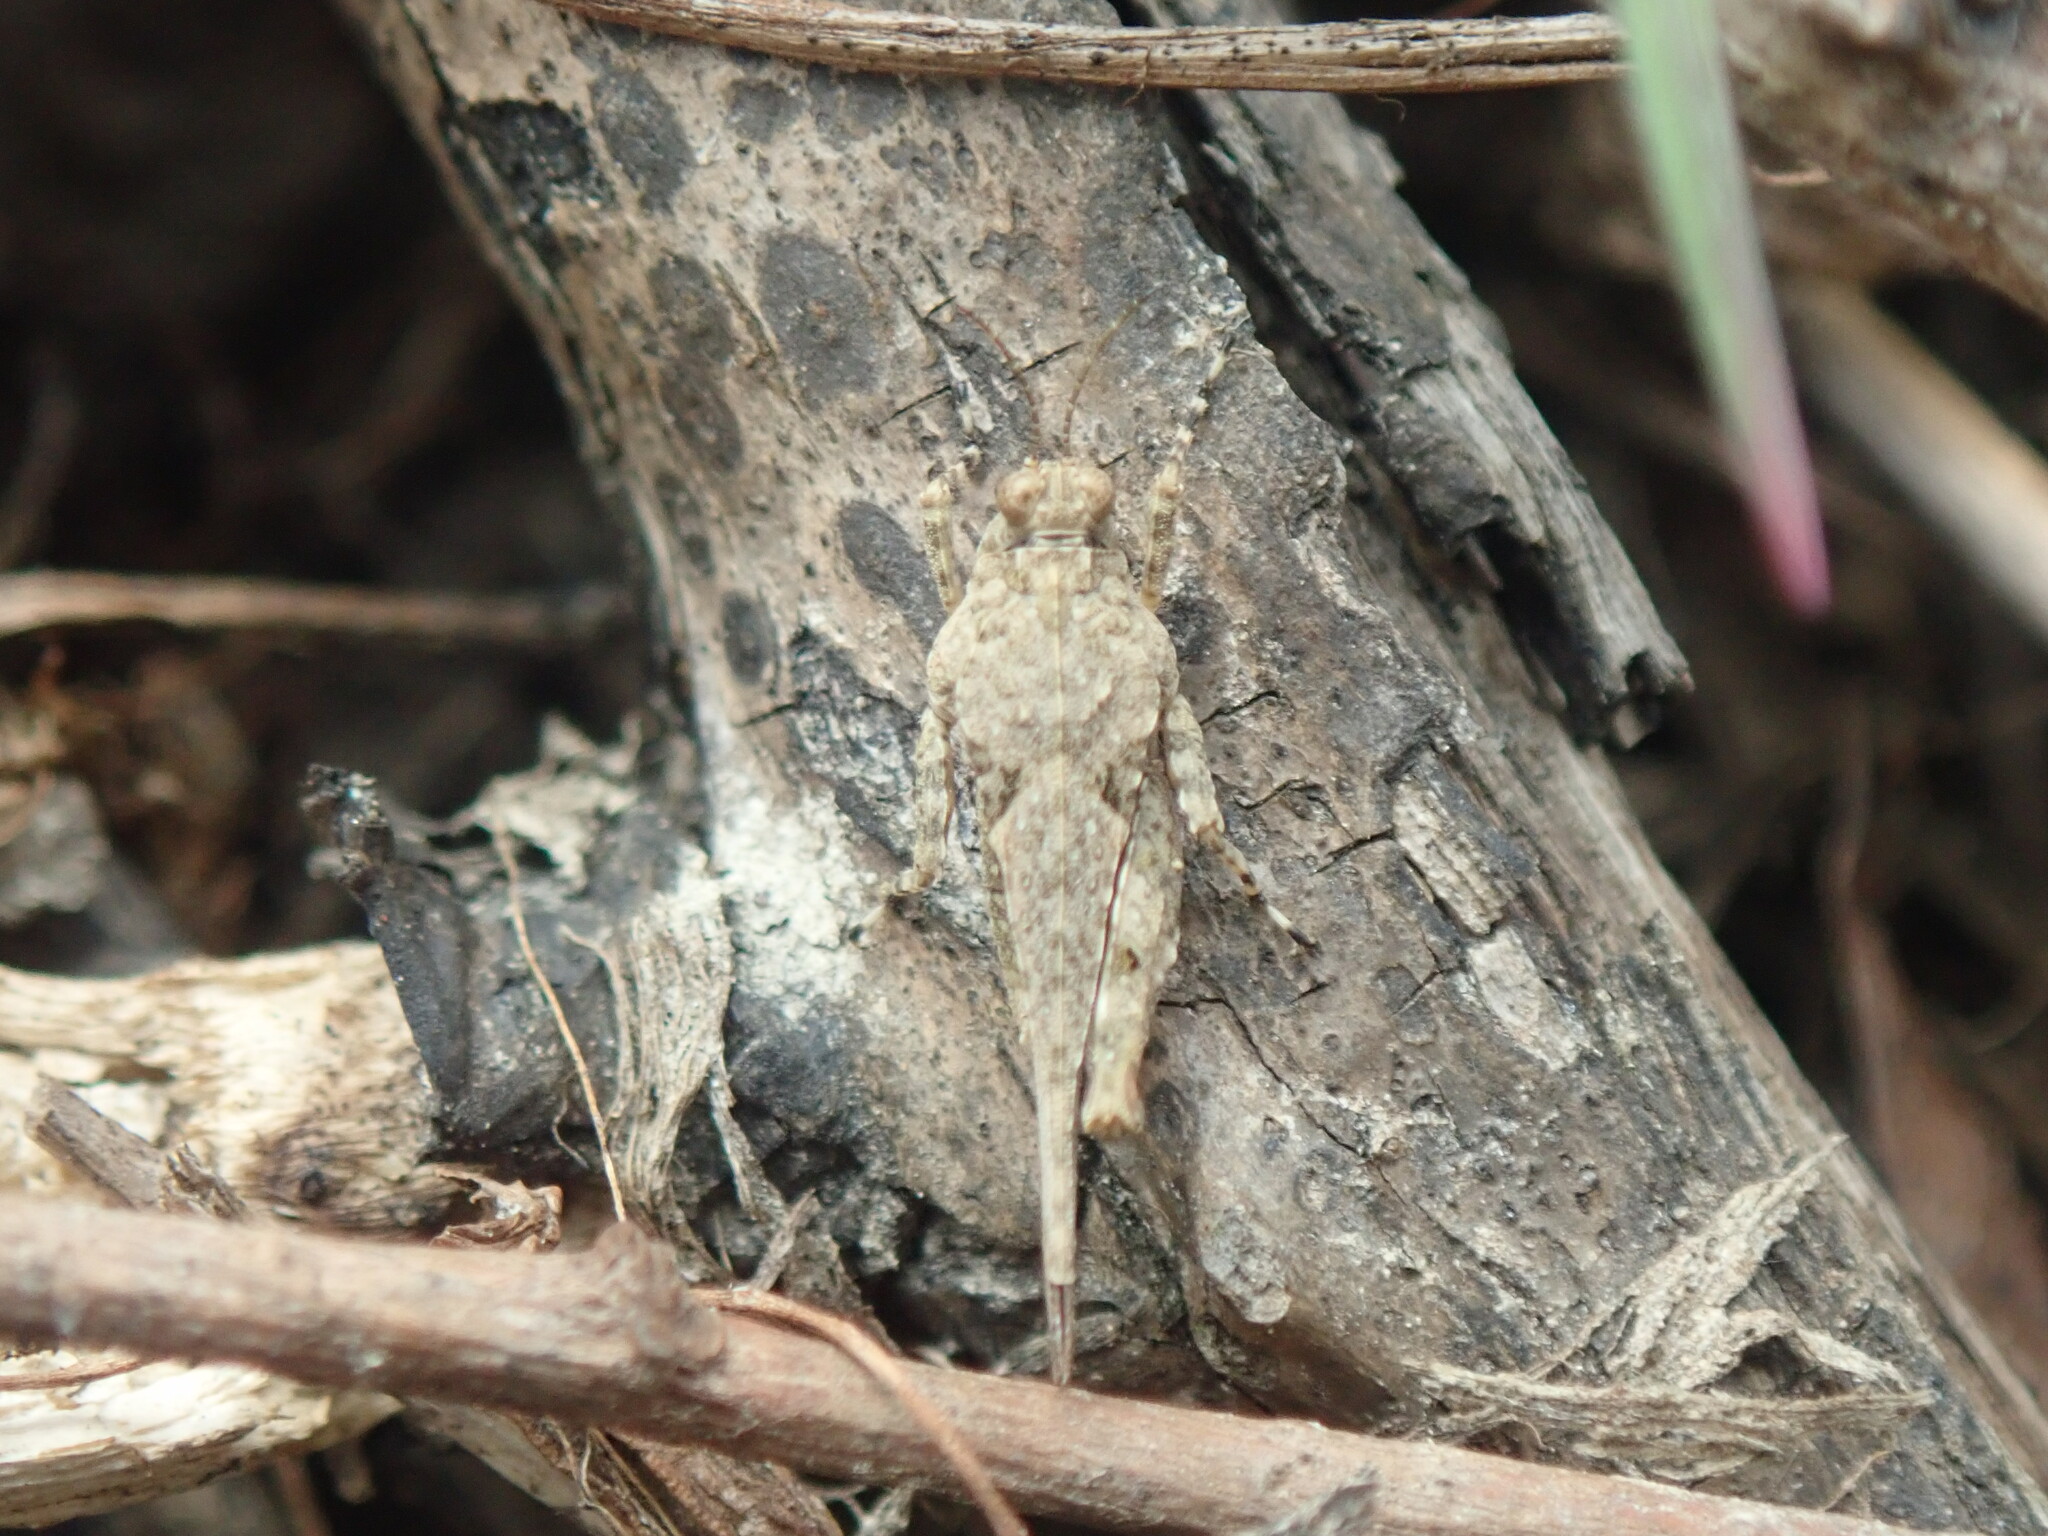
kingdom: Animalia
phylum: Arthropoda
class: Insecta
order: Orthoptera
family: Tetrigidae
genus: Paratettix
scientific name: Paratettix meridionalis
